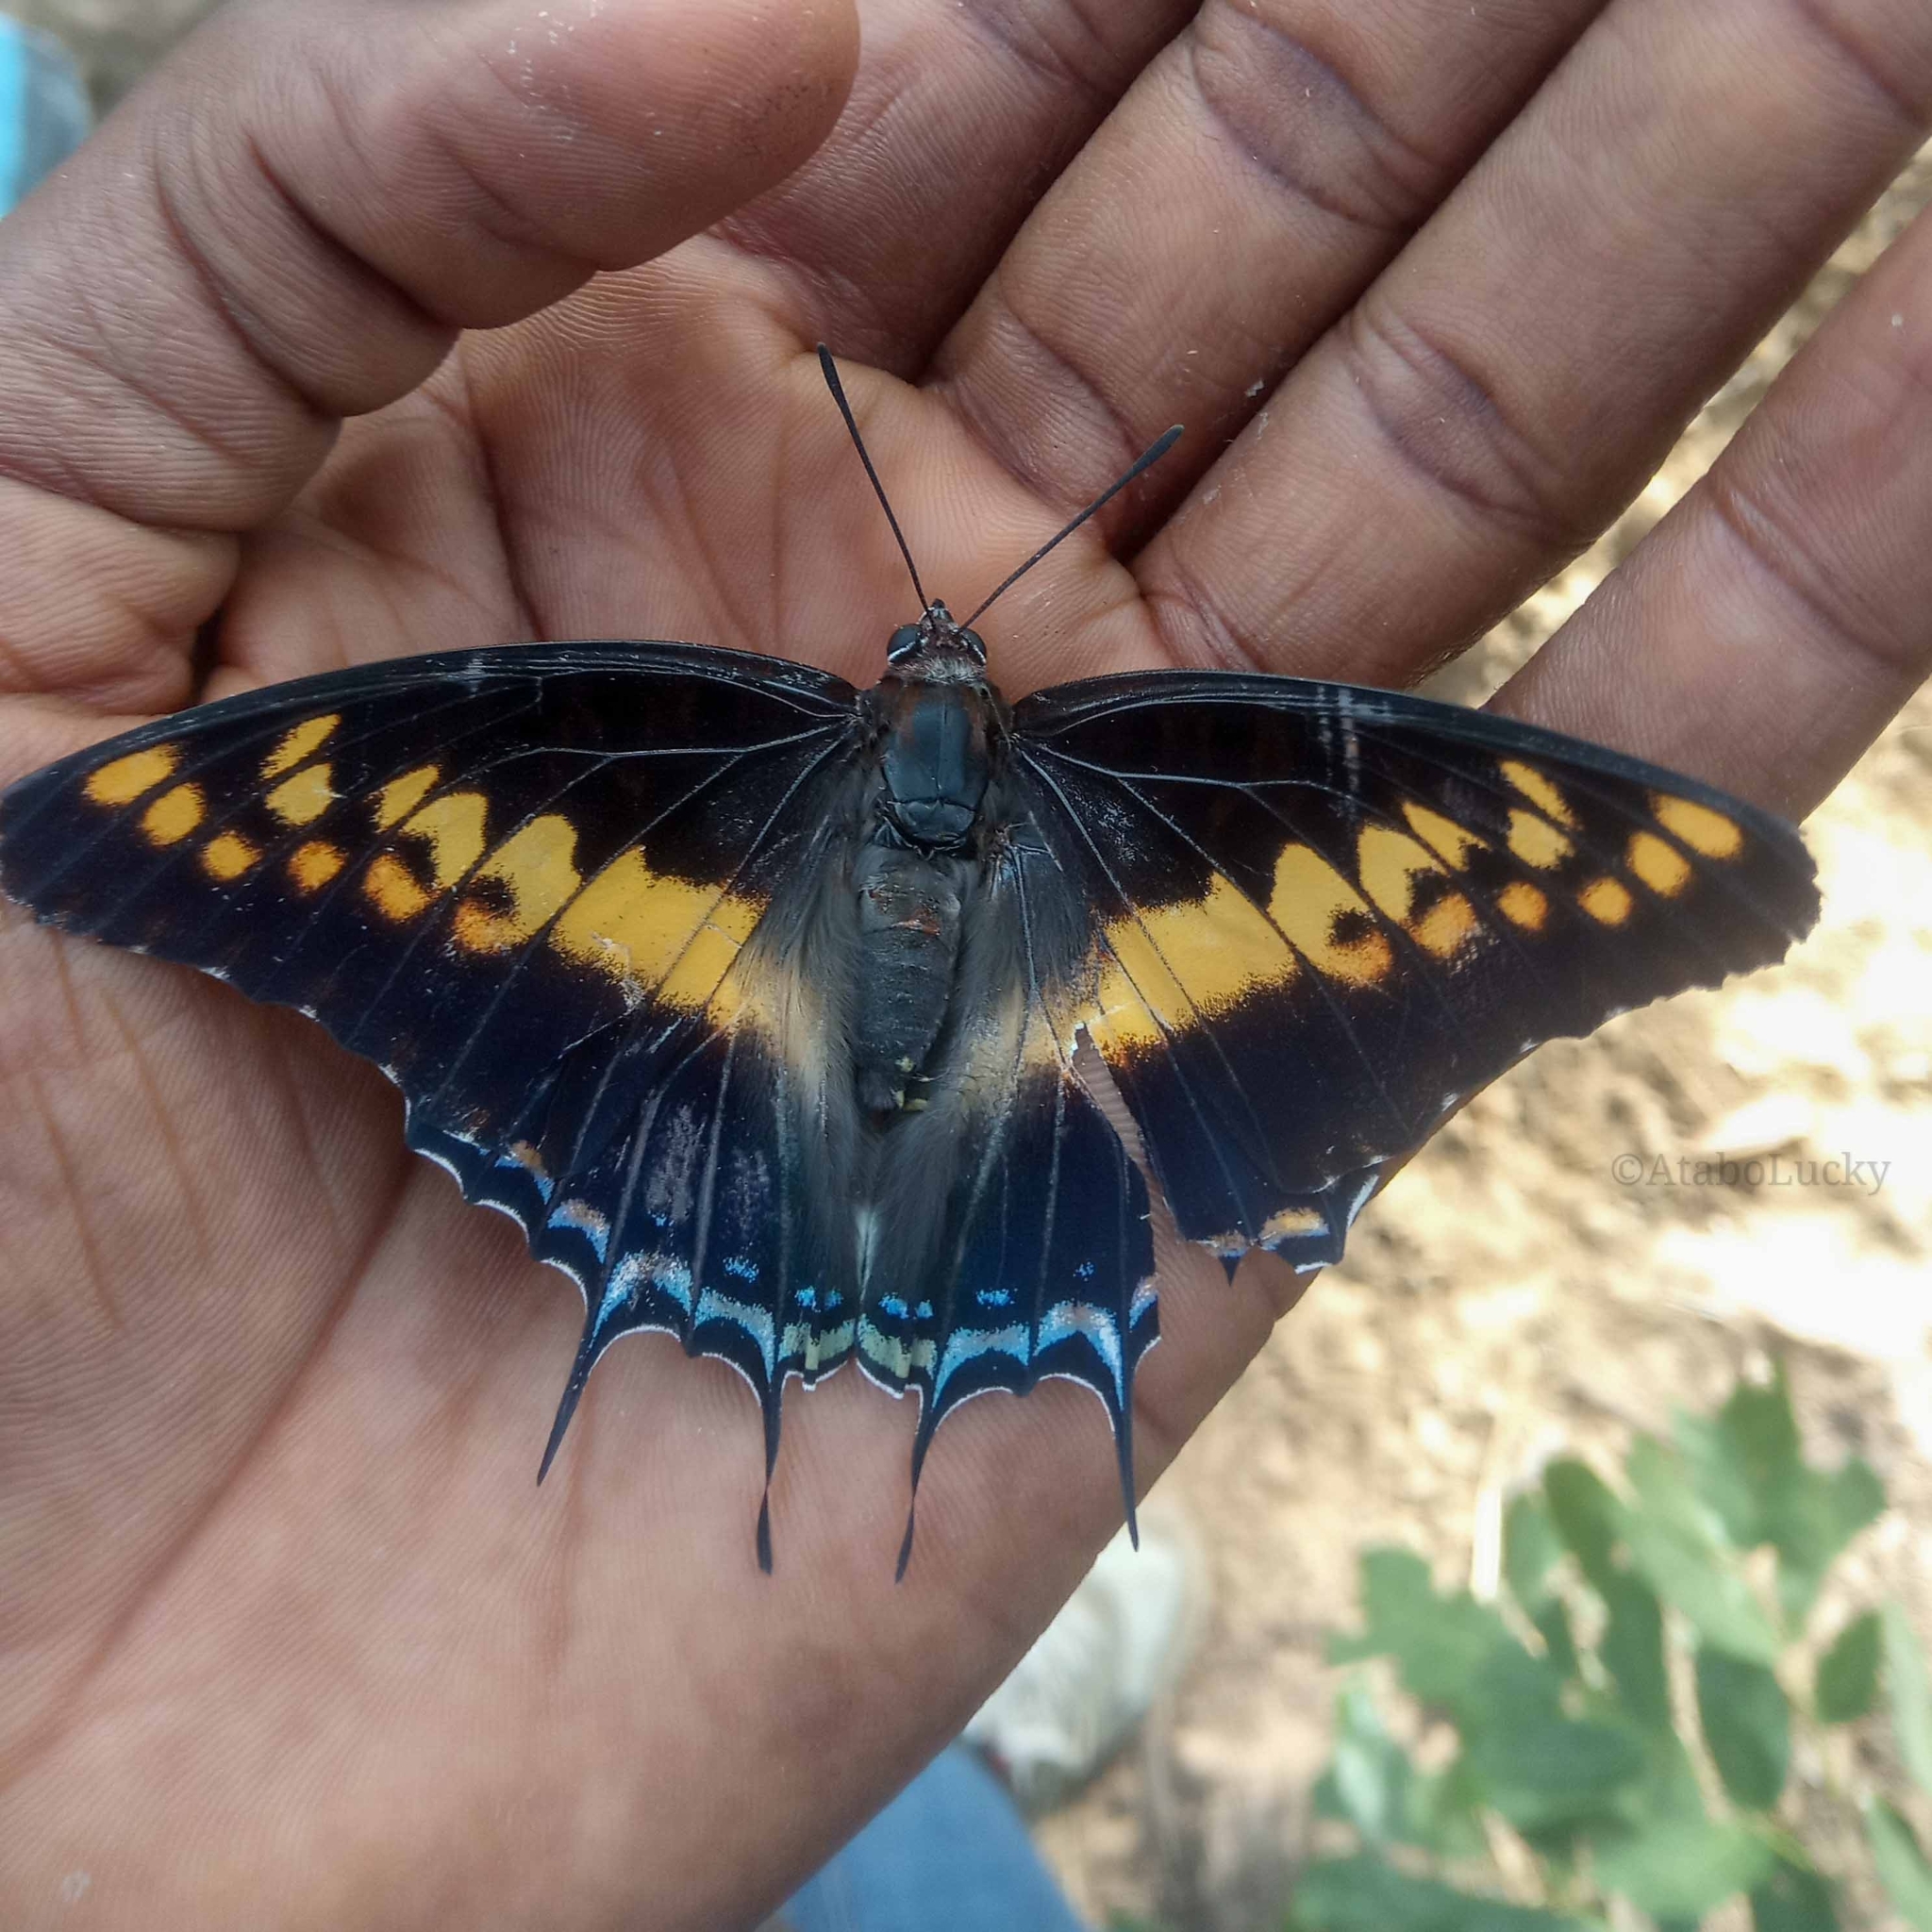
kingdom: Animalia
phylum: Arthropoda
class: Insecta
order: Lepidoptera
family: Nymphalidae
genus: Charaxes
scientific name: Charaxes castor
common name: Giant charaxes
